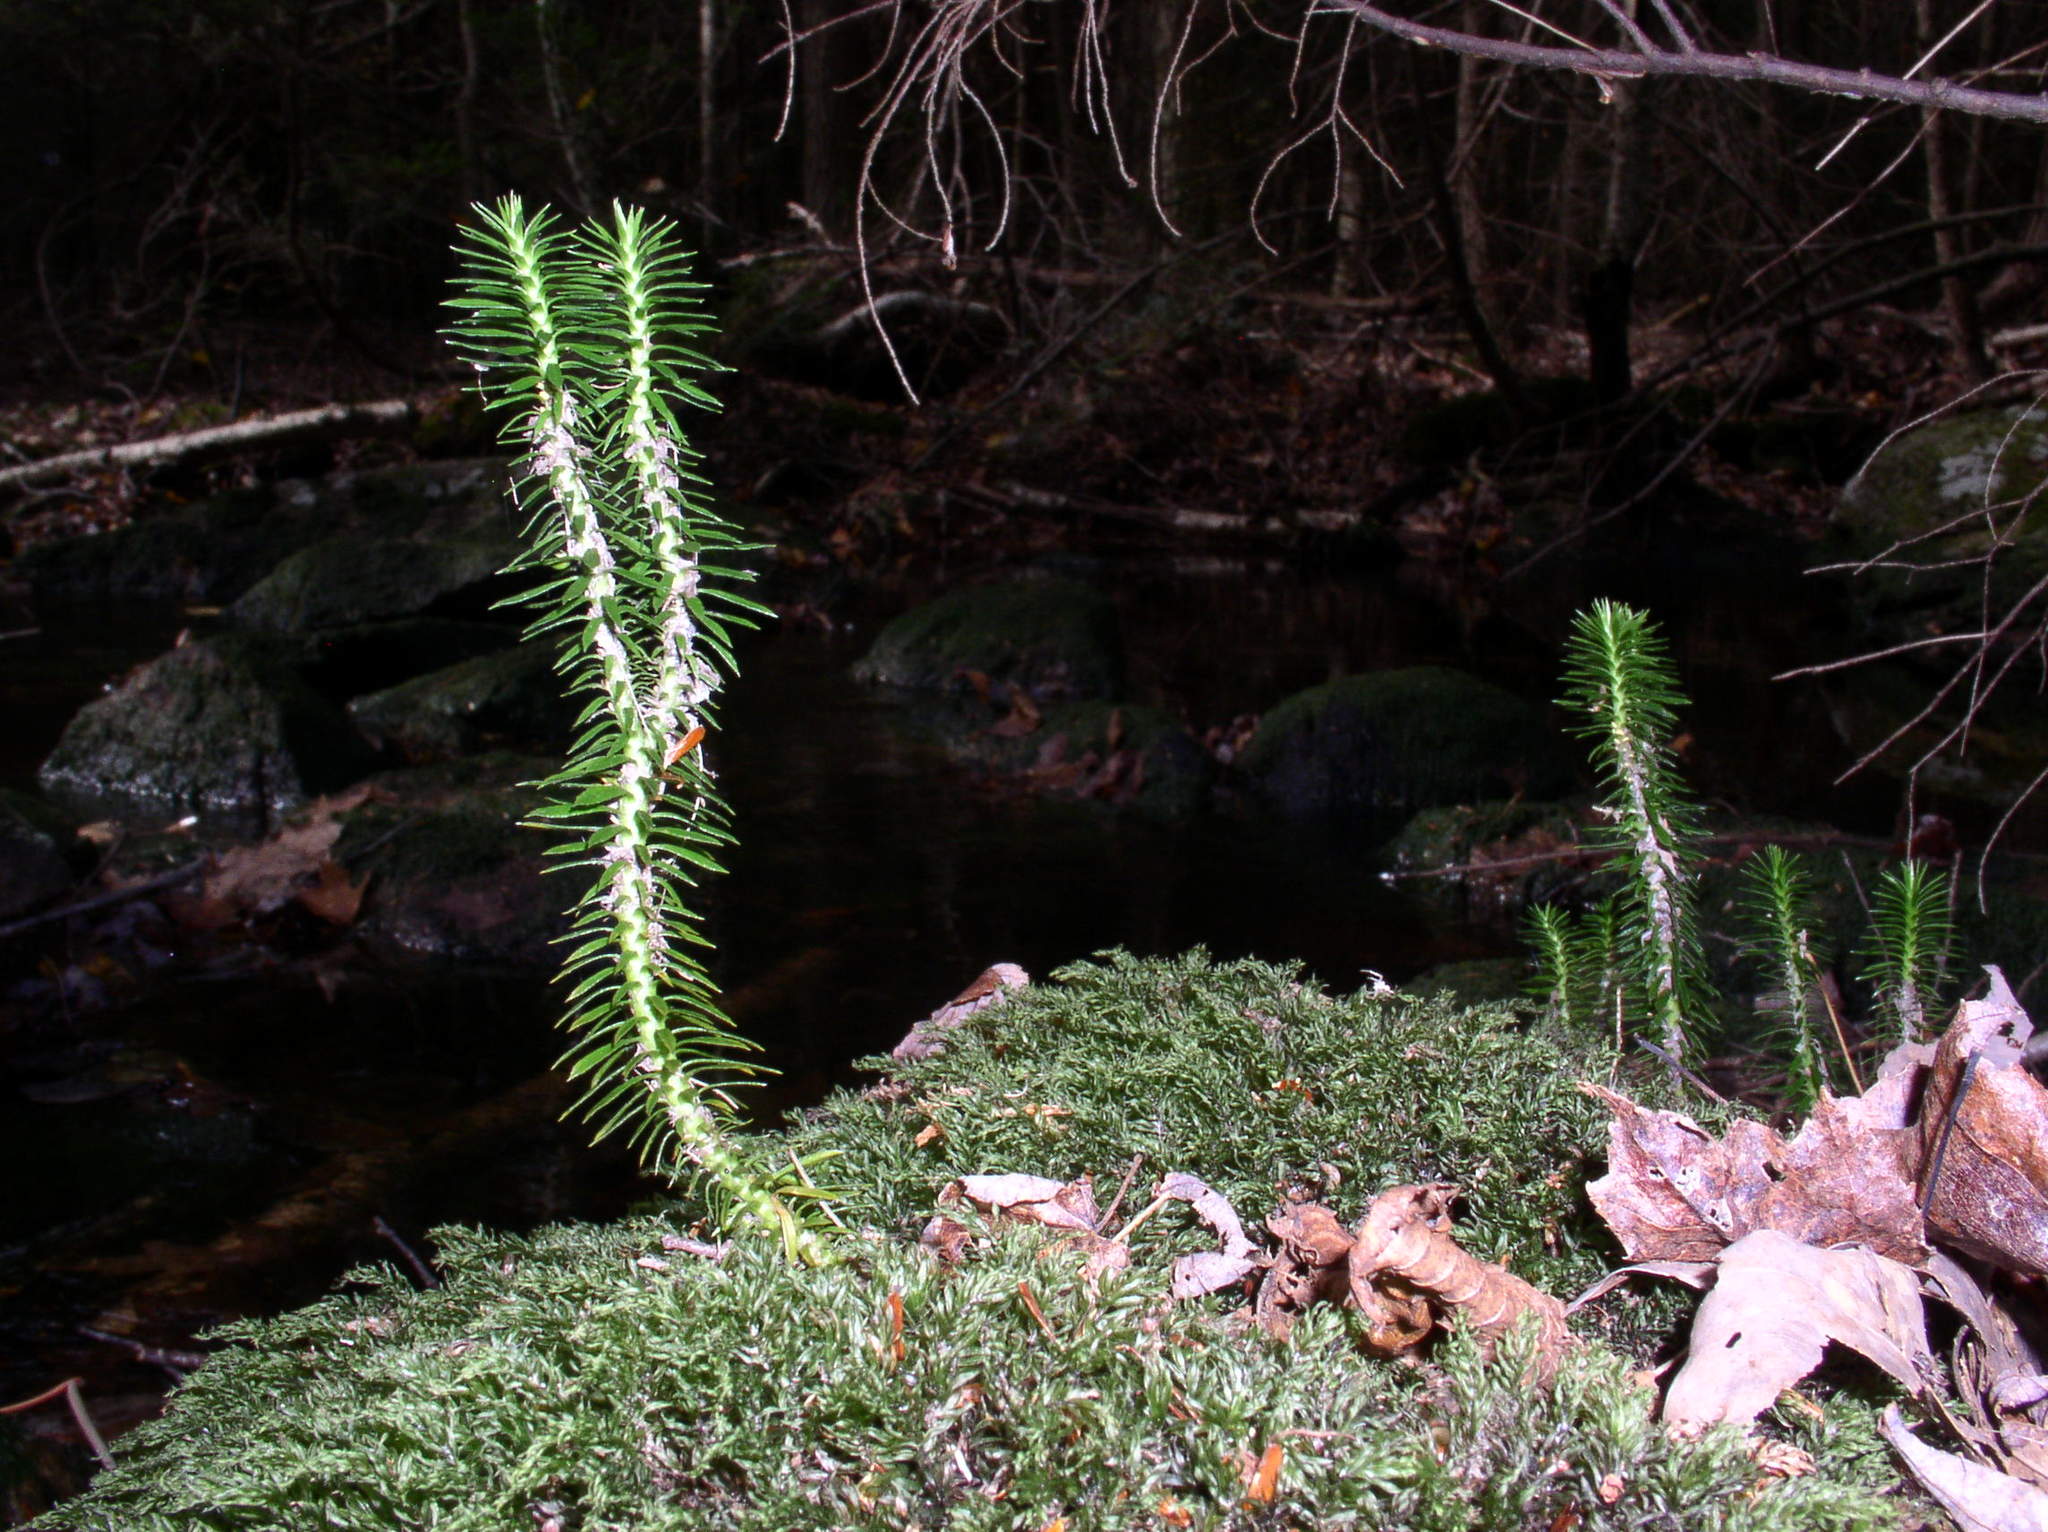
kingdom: Plantae
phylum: Tracheophyta
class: Lycopodiopsida
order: Lycopodiales
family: Lycopodiaceae
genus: Huperzia
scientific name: Huperzia lucidula
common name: Shining clubmoss
